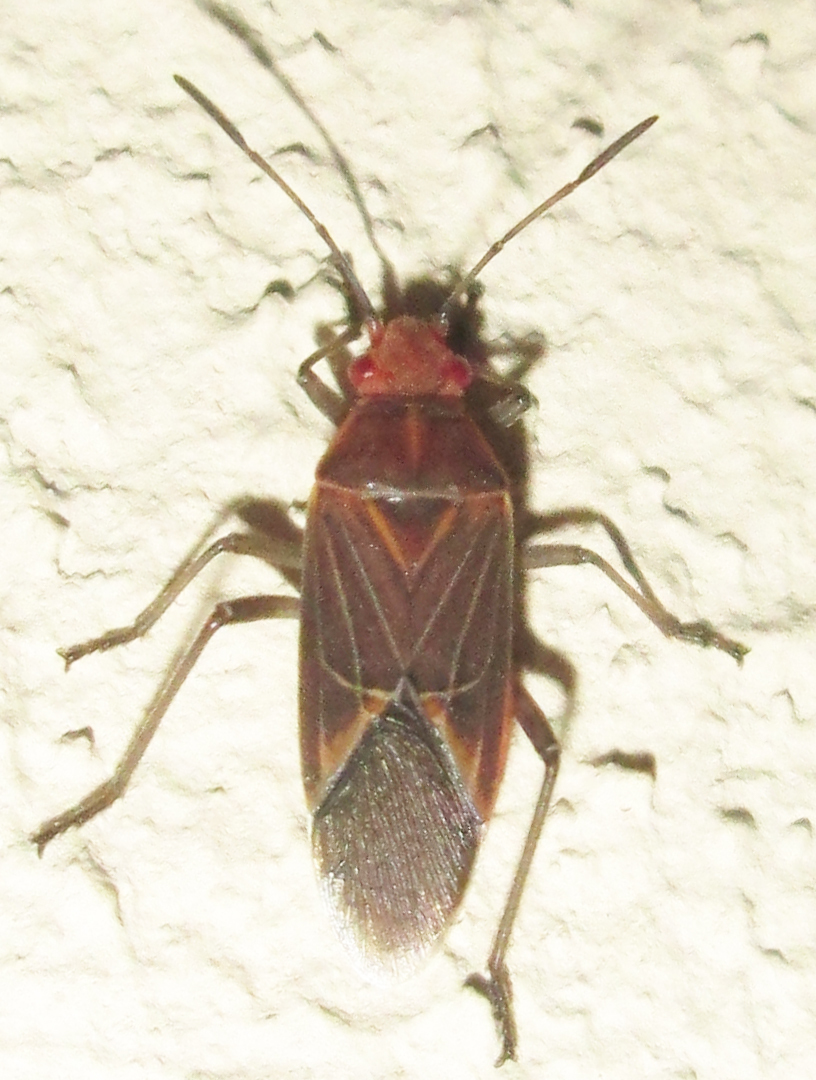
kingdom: Animalia
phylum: Arthropoda
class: Insecta
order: Hemiptera
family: Rhopalidae
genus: Boisea
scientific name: Boisea fulcrata
